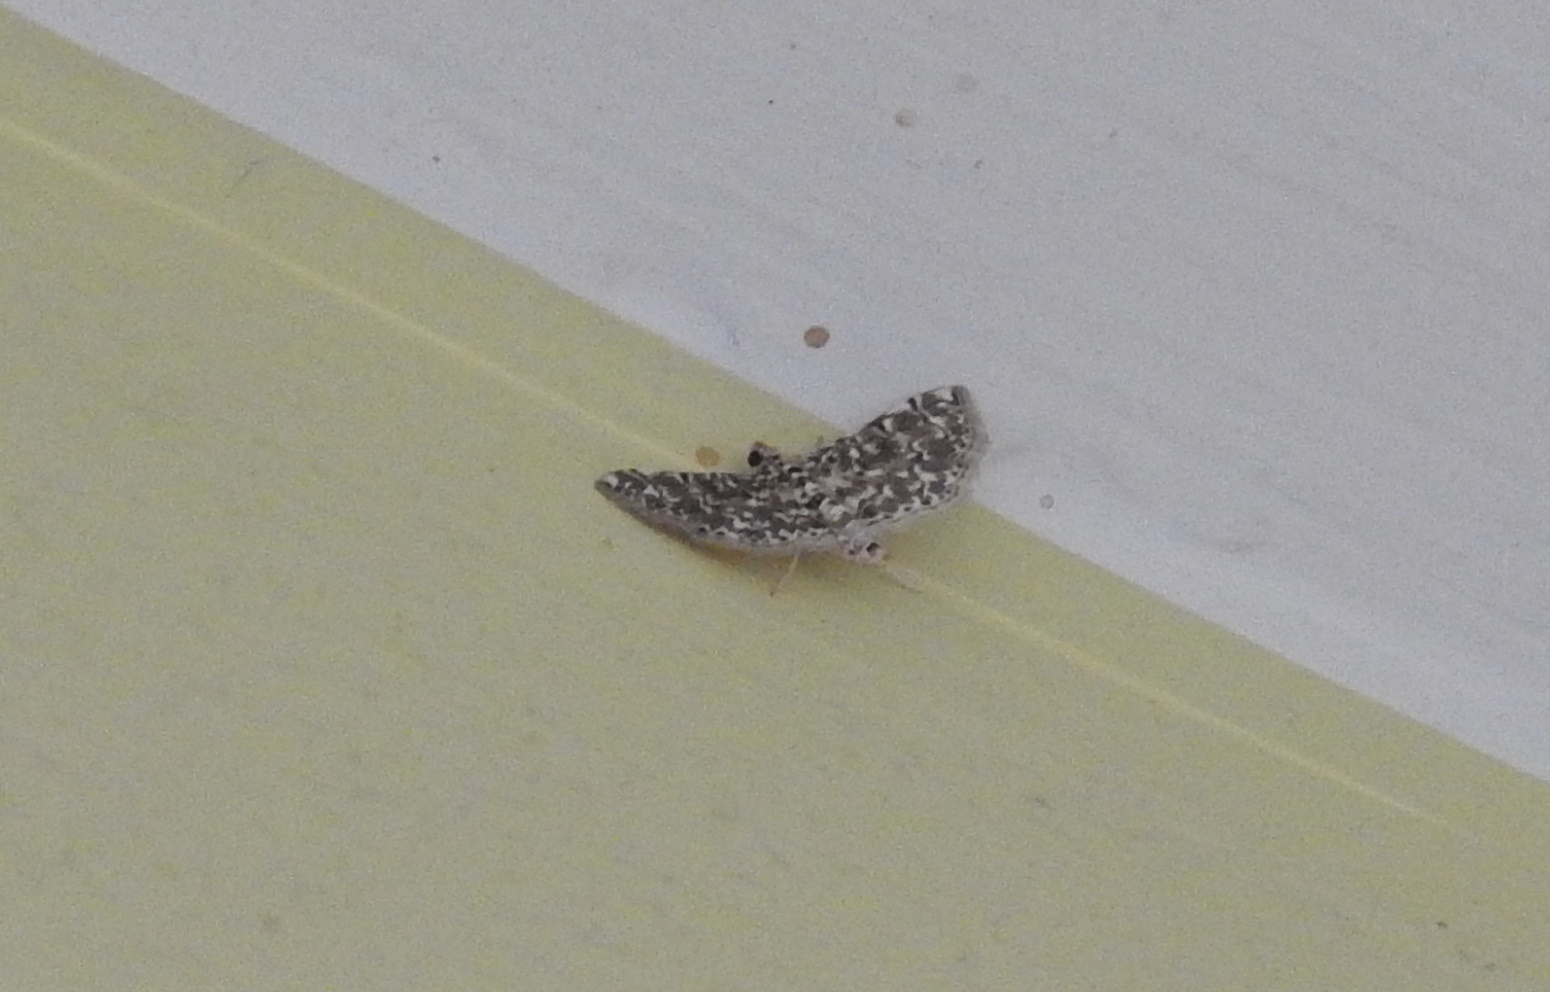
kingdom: Animalia
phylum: Arthropoda
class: Insecta
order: Lepidoptera
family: Crambidae
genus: Metoeca
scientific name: Metoeca foedalis
